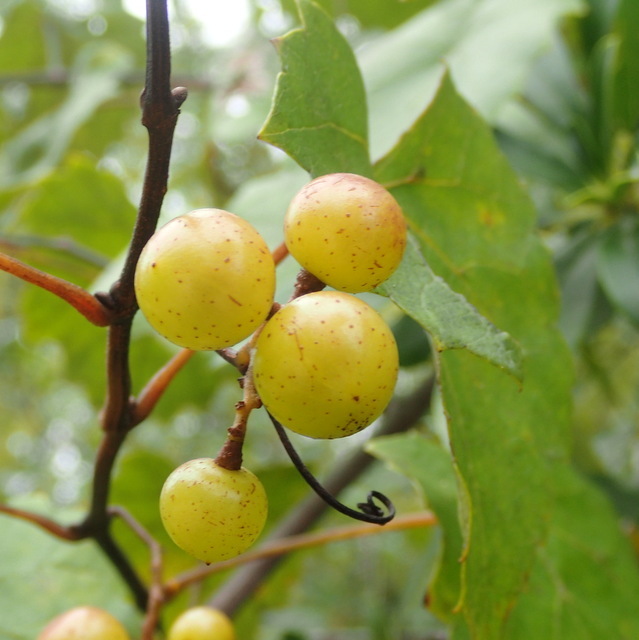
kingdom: Plantae
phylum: Tracheophyta
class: Magnoliopsida
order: Vitales
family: Vitaceae
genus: Vitis
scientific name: Vitis rotundifolia
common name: Muscadine grape
